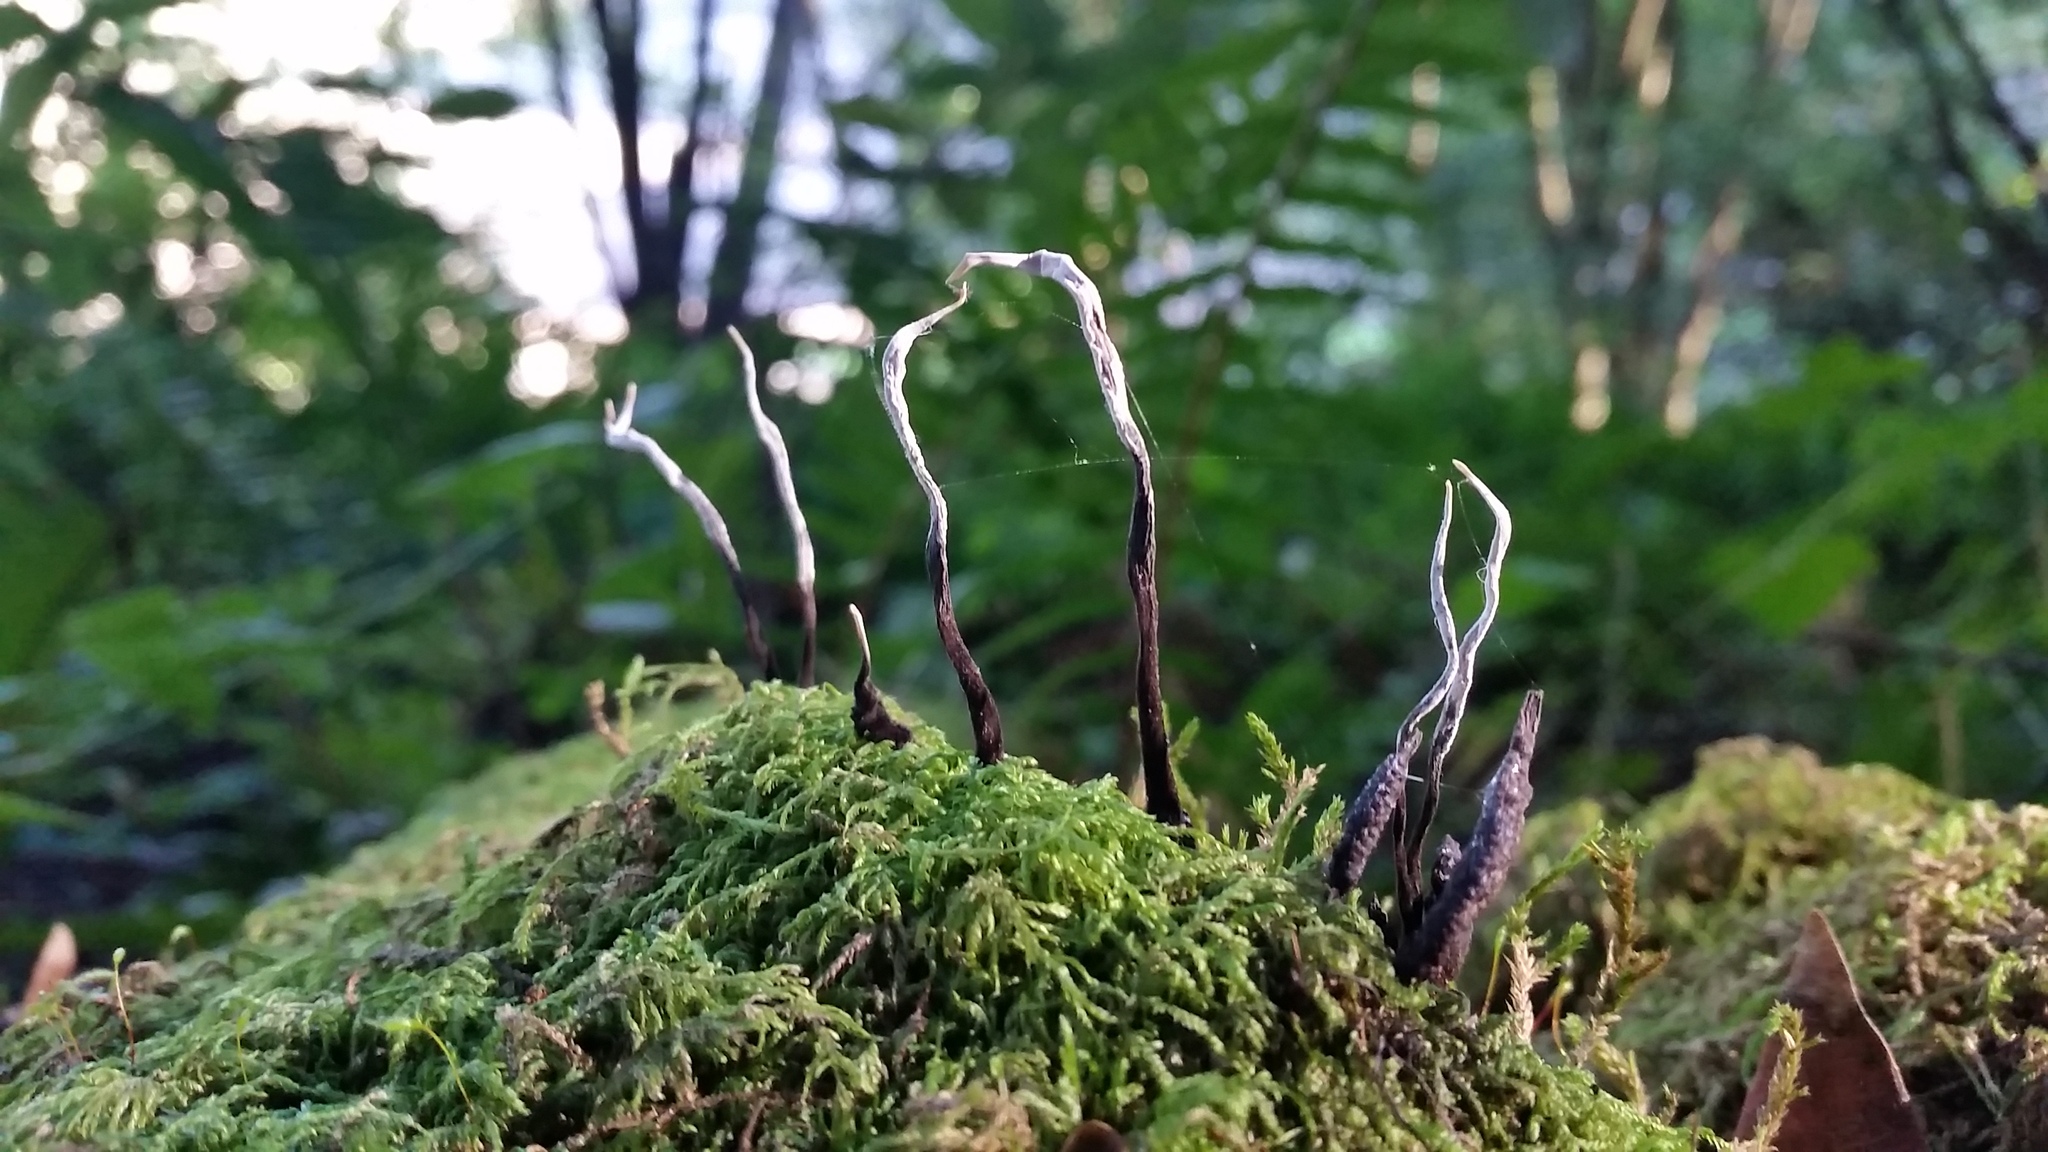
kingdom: Fungi
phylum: Ascomycota
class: Sordariomycetes
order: Xylariales
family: Xylariaceae
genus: Xylaria
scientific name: Xylaria hypoxylon
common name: Candle-snuff fungus
